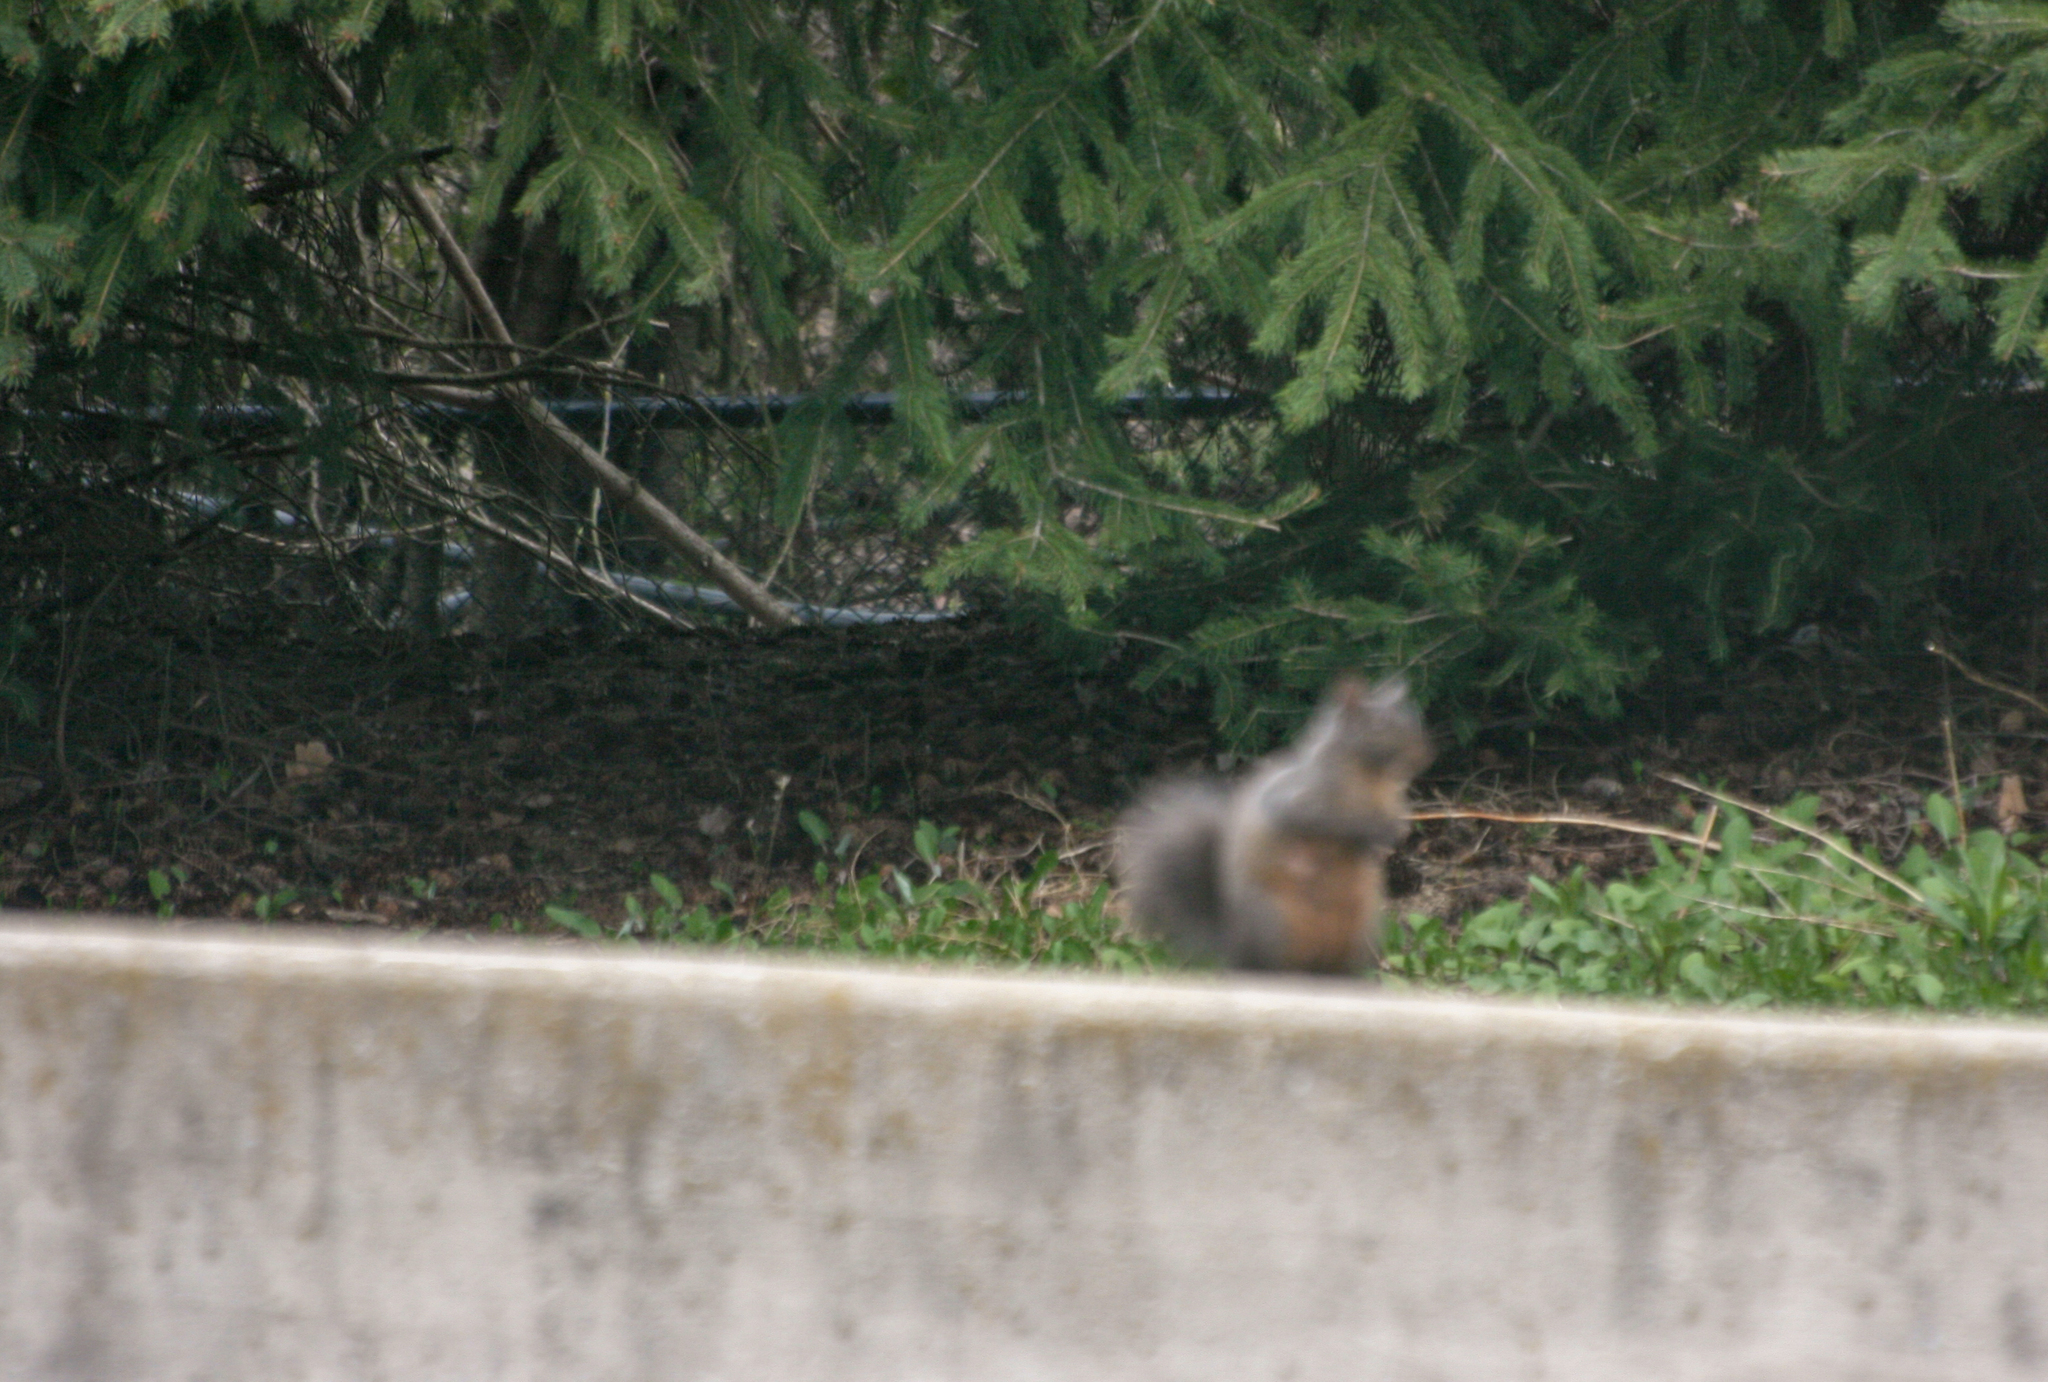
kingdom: Animalia
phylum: Chordata
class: Mammalia
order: Rodentia
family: Sciuridae
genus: Sciurus
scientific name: Sciurus carolinensis
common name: Eastern gray squirrel
